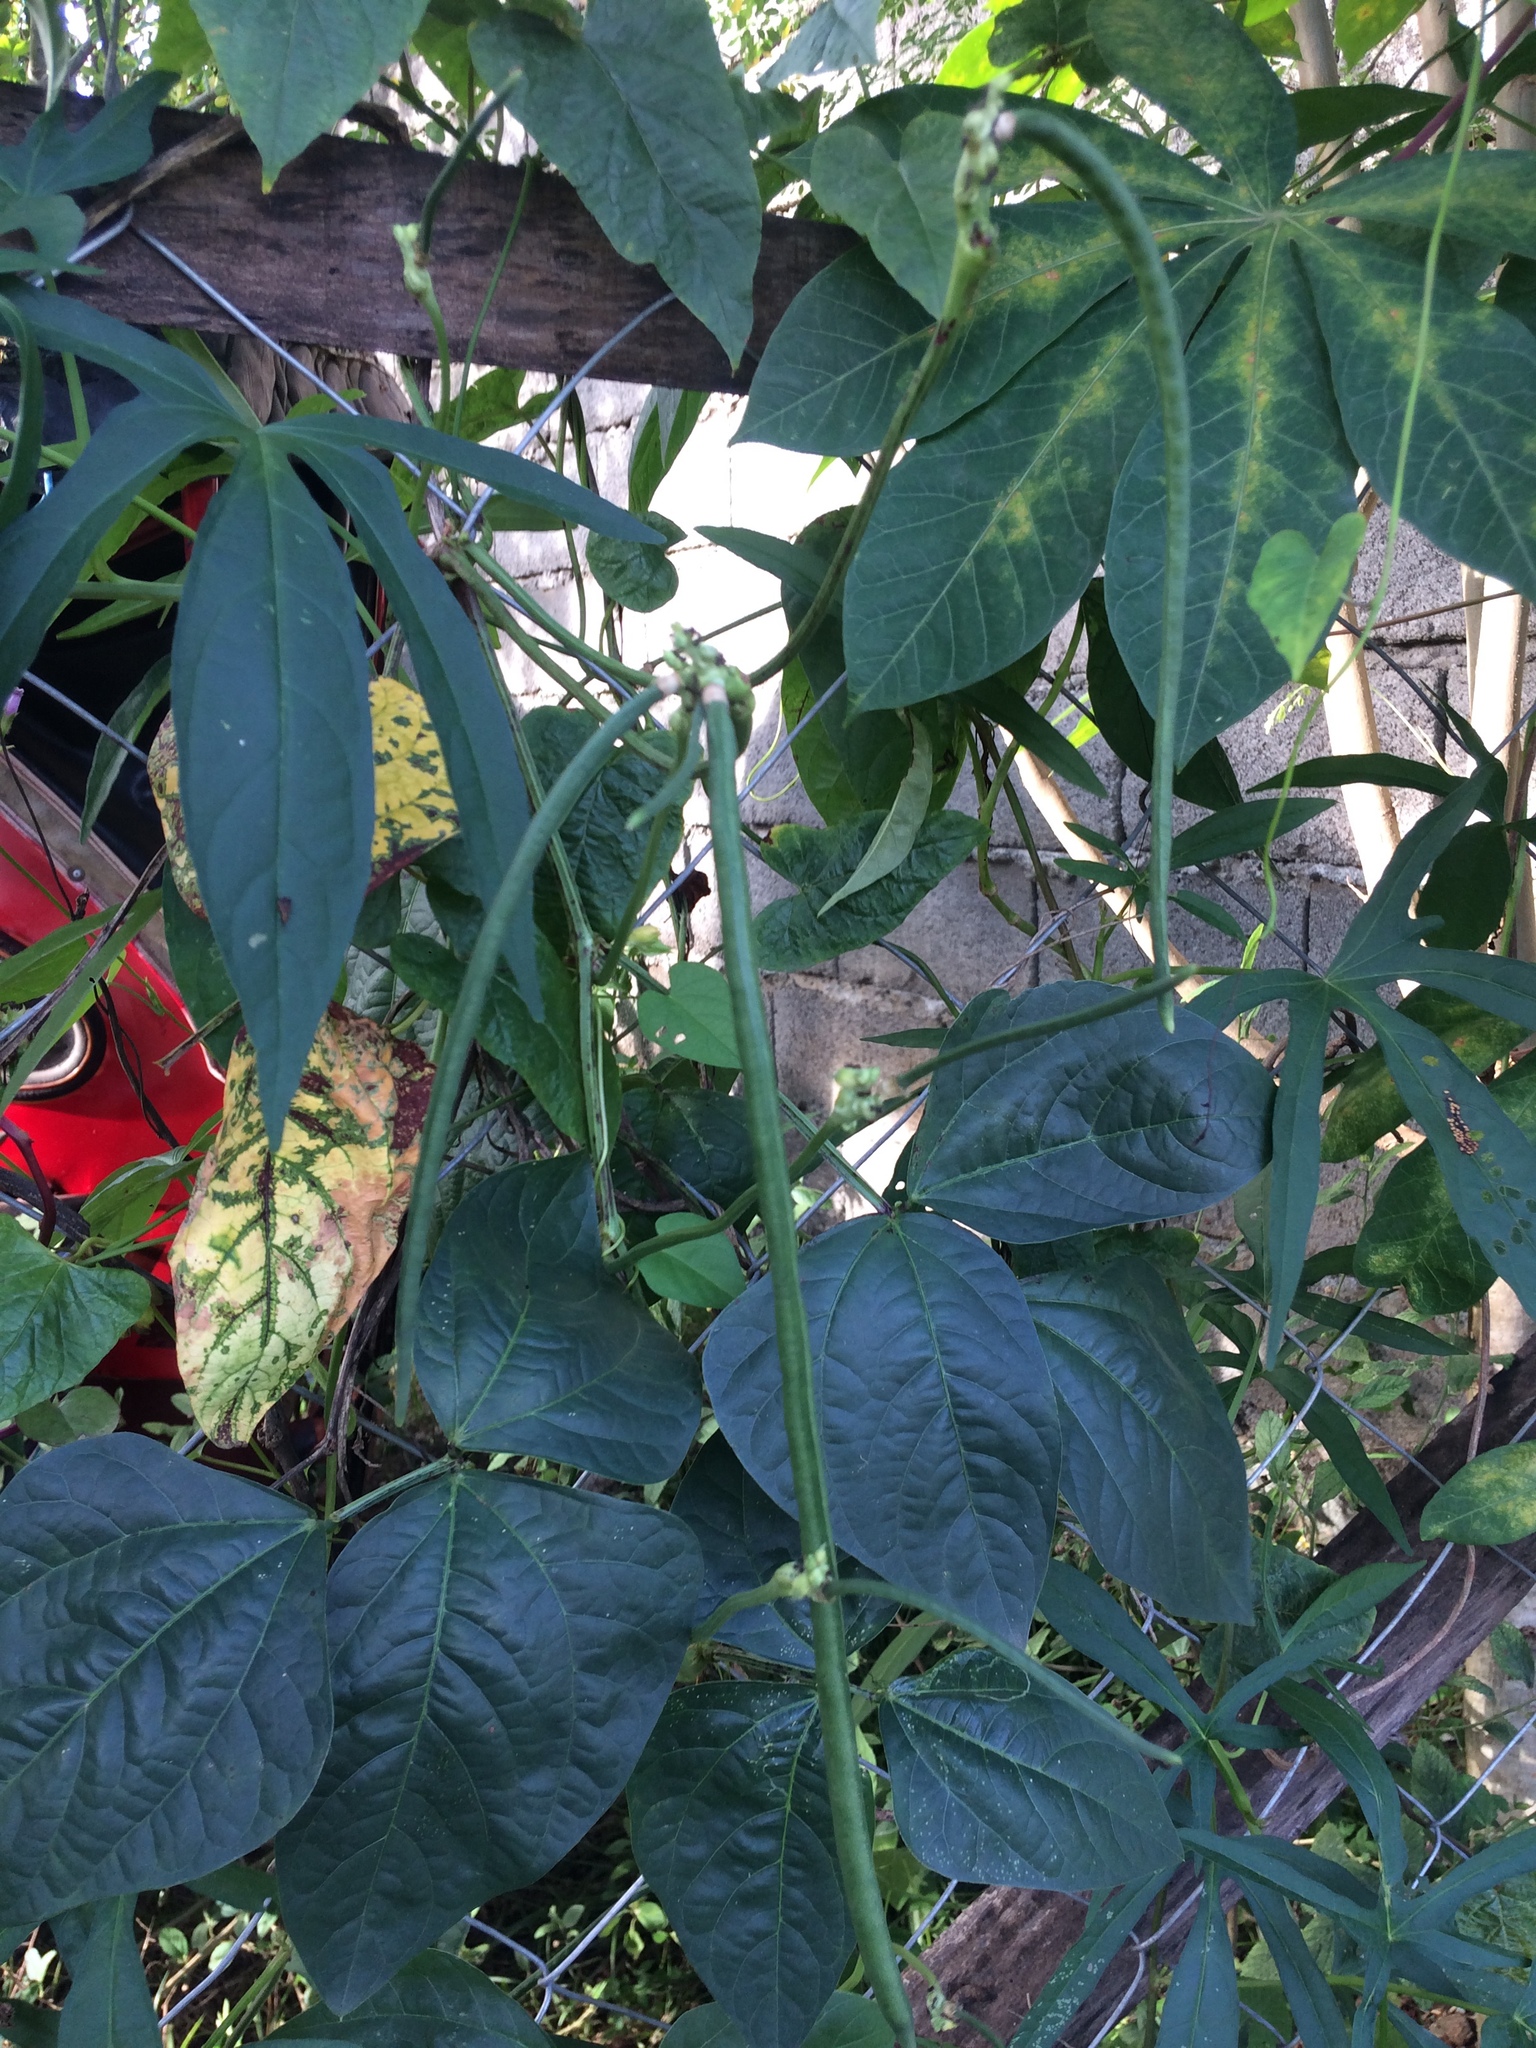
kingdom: Plantae
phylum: Tracheophyta
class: Magnoliopsida
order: Fabales
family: Fabaceae
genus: Vigna
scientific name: Vigna unguiculata
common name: Cowpea
